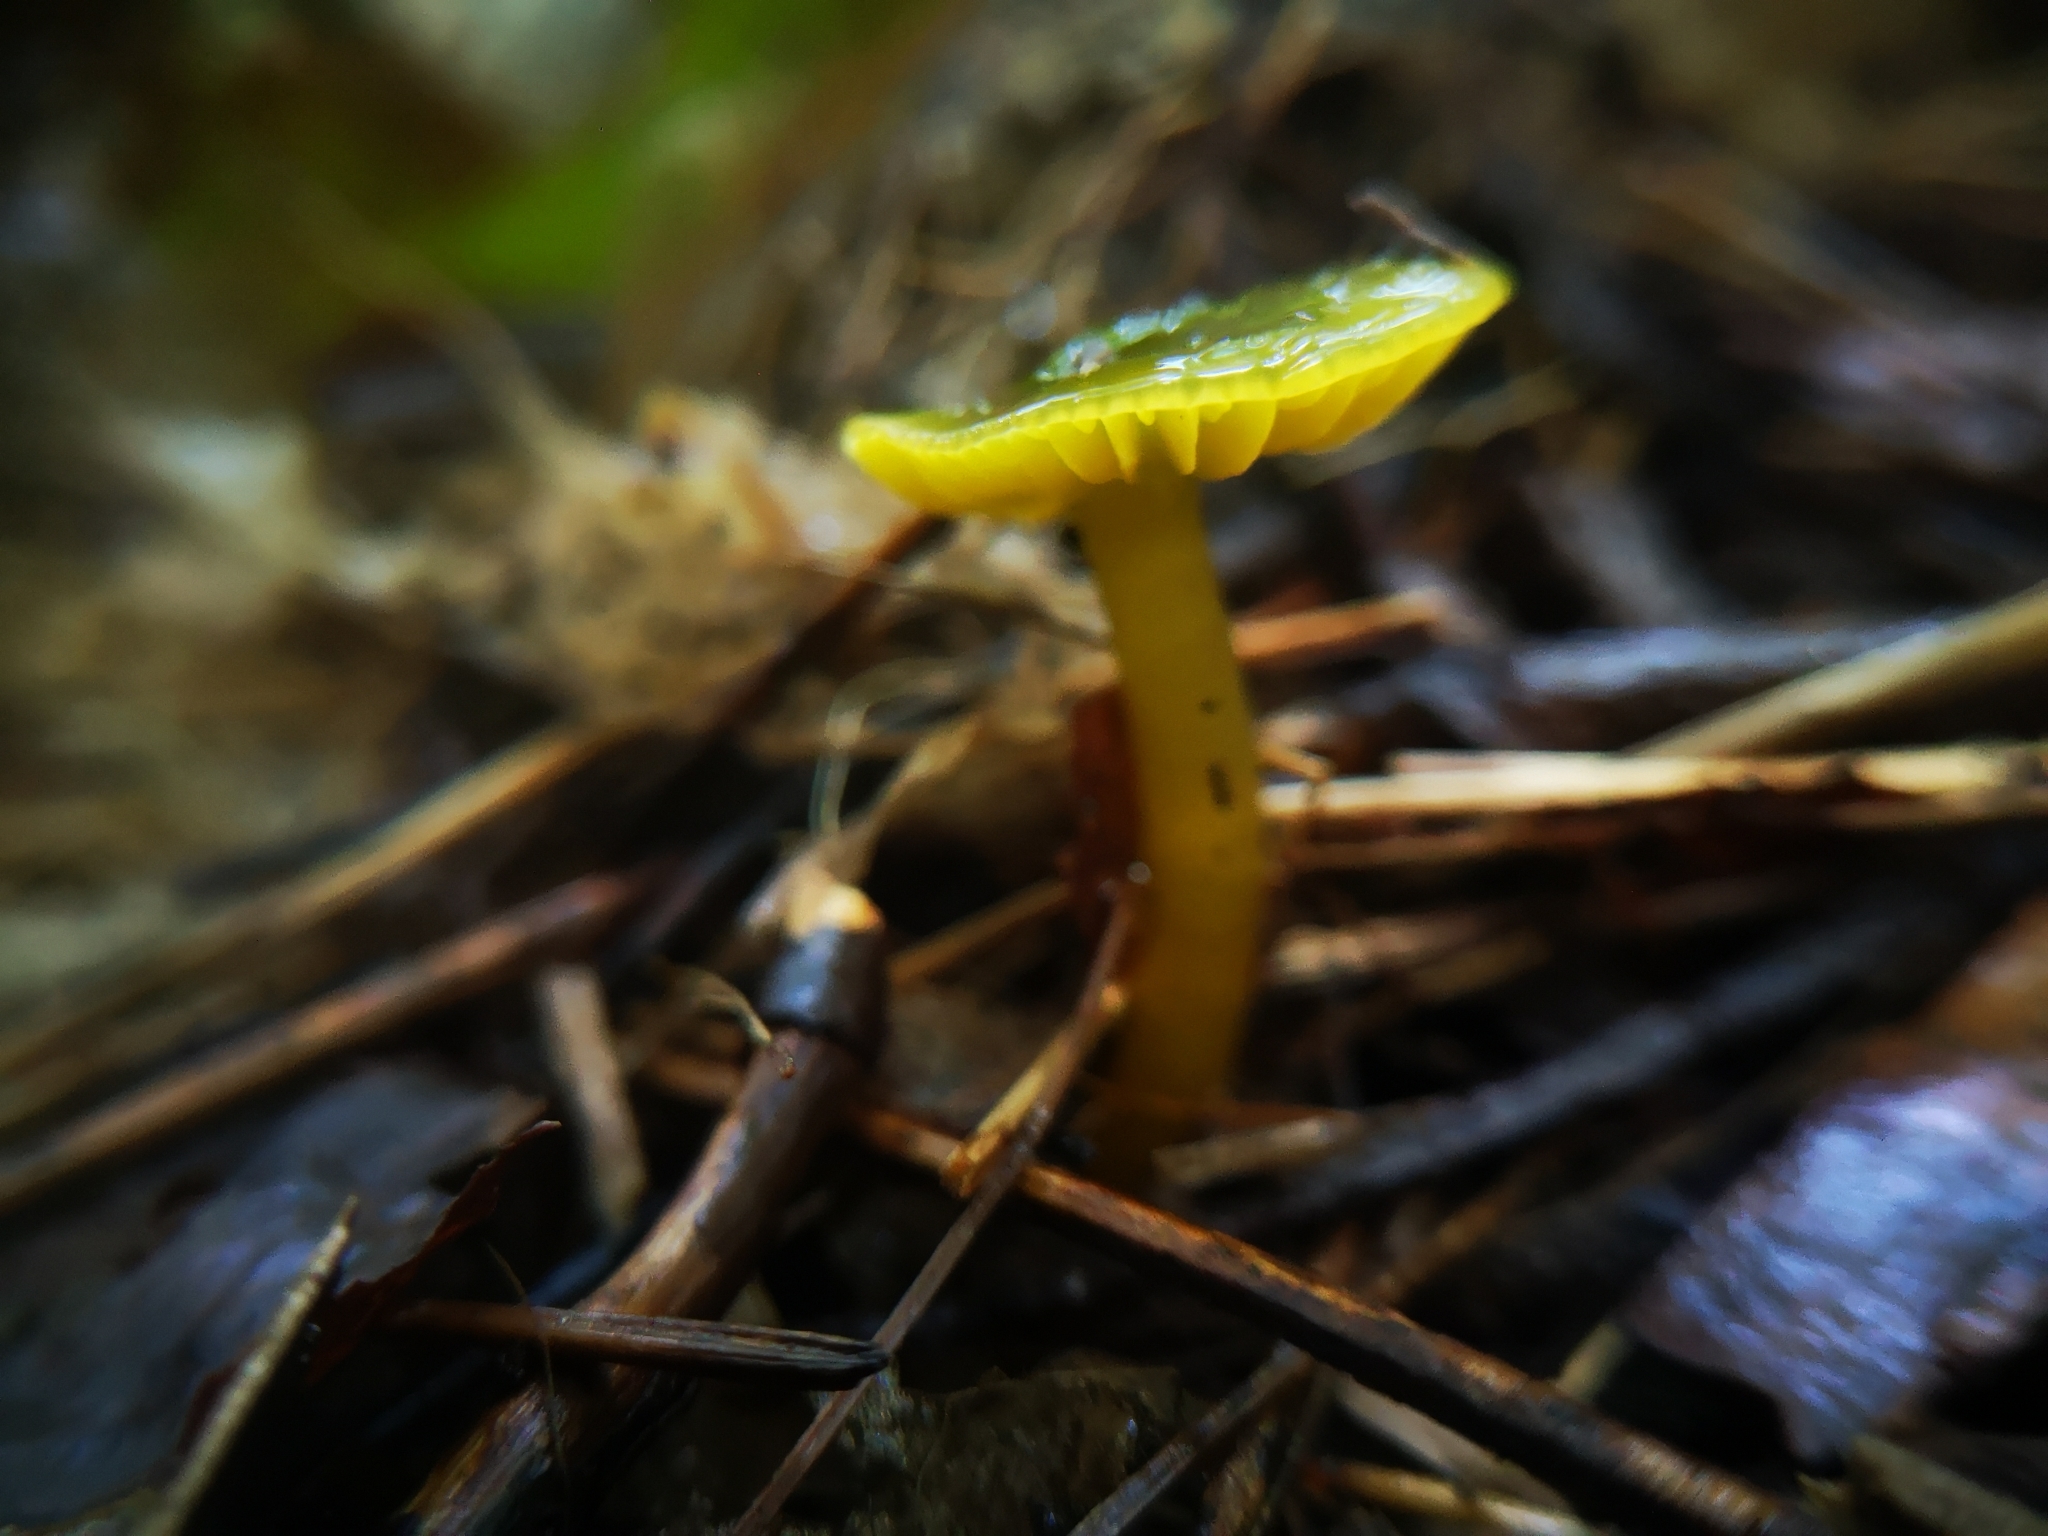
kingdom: Fungi
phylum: Basidiomycota
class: Agaricomycetes
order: Agaricales
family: Hygrophoraceae
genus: Gliophorus
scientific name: Gliophorus psittacinus
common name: Parrot wax-cap
